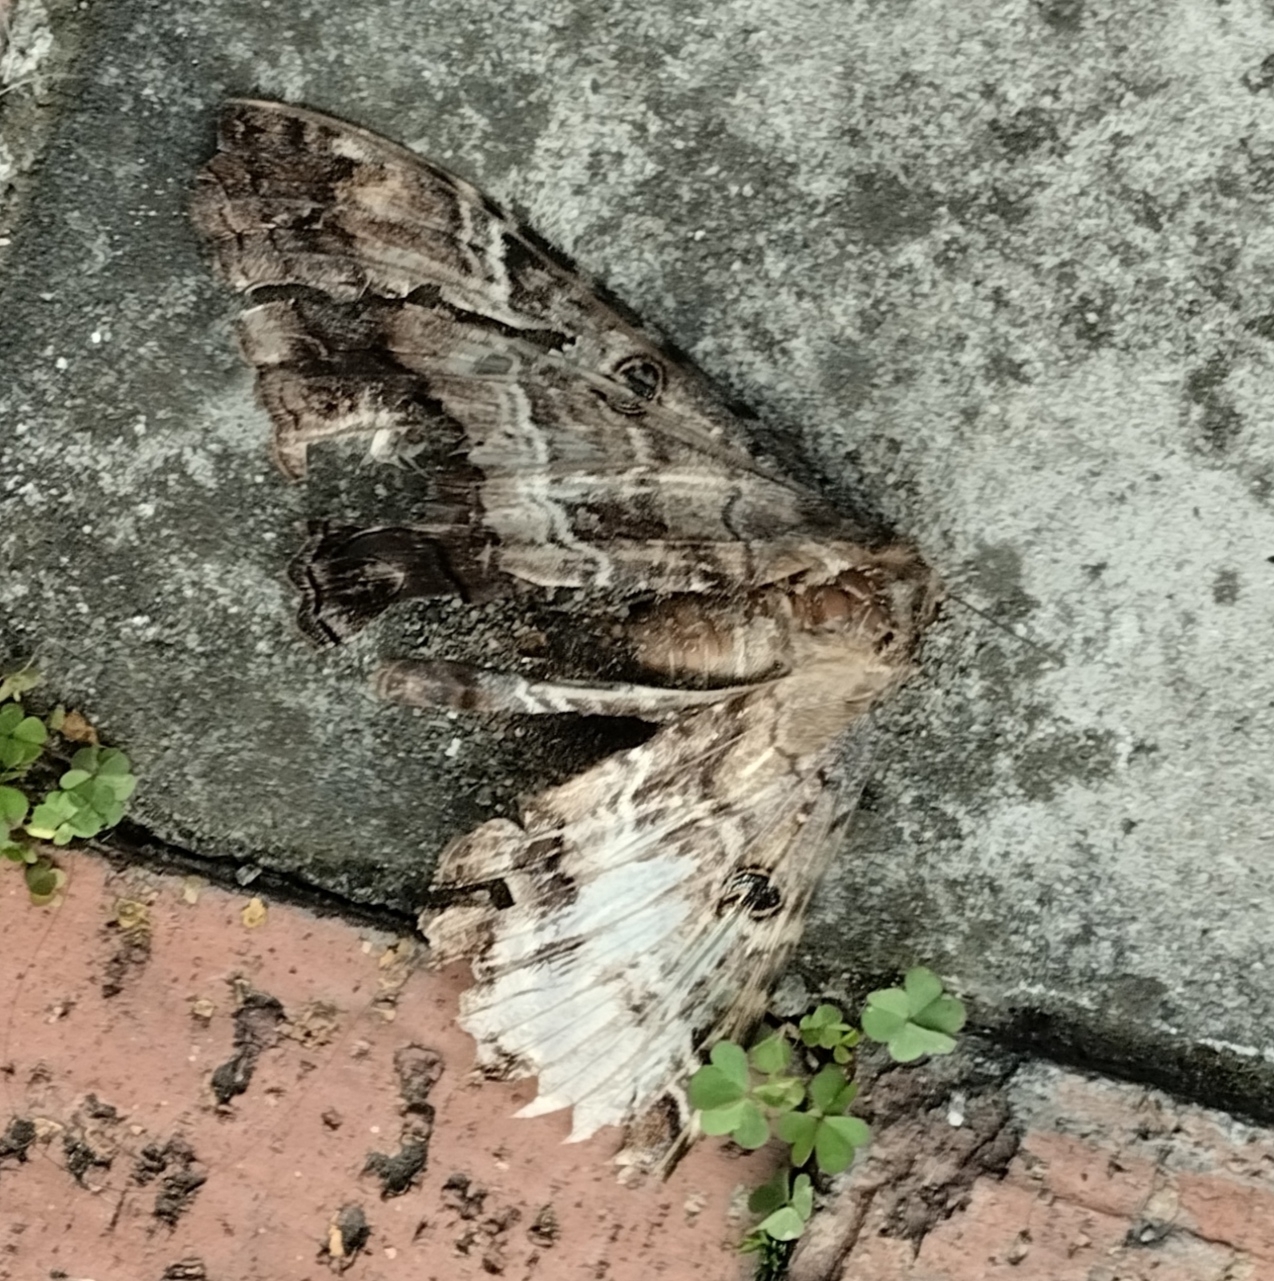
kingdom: Animalia
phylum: Arthropoda
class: Insecta
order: Lepidoptera
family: Erebidae
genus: Ascalapha
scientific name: Ascalapha odorata
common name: Black witch
